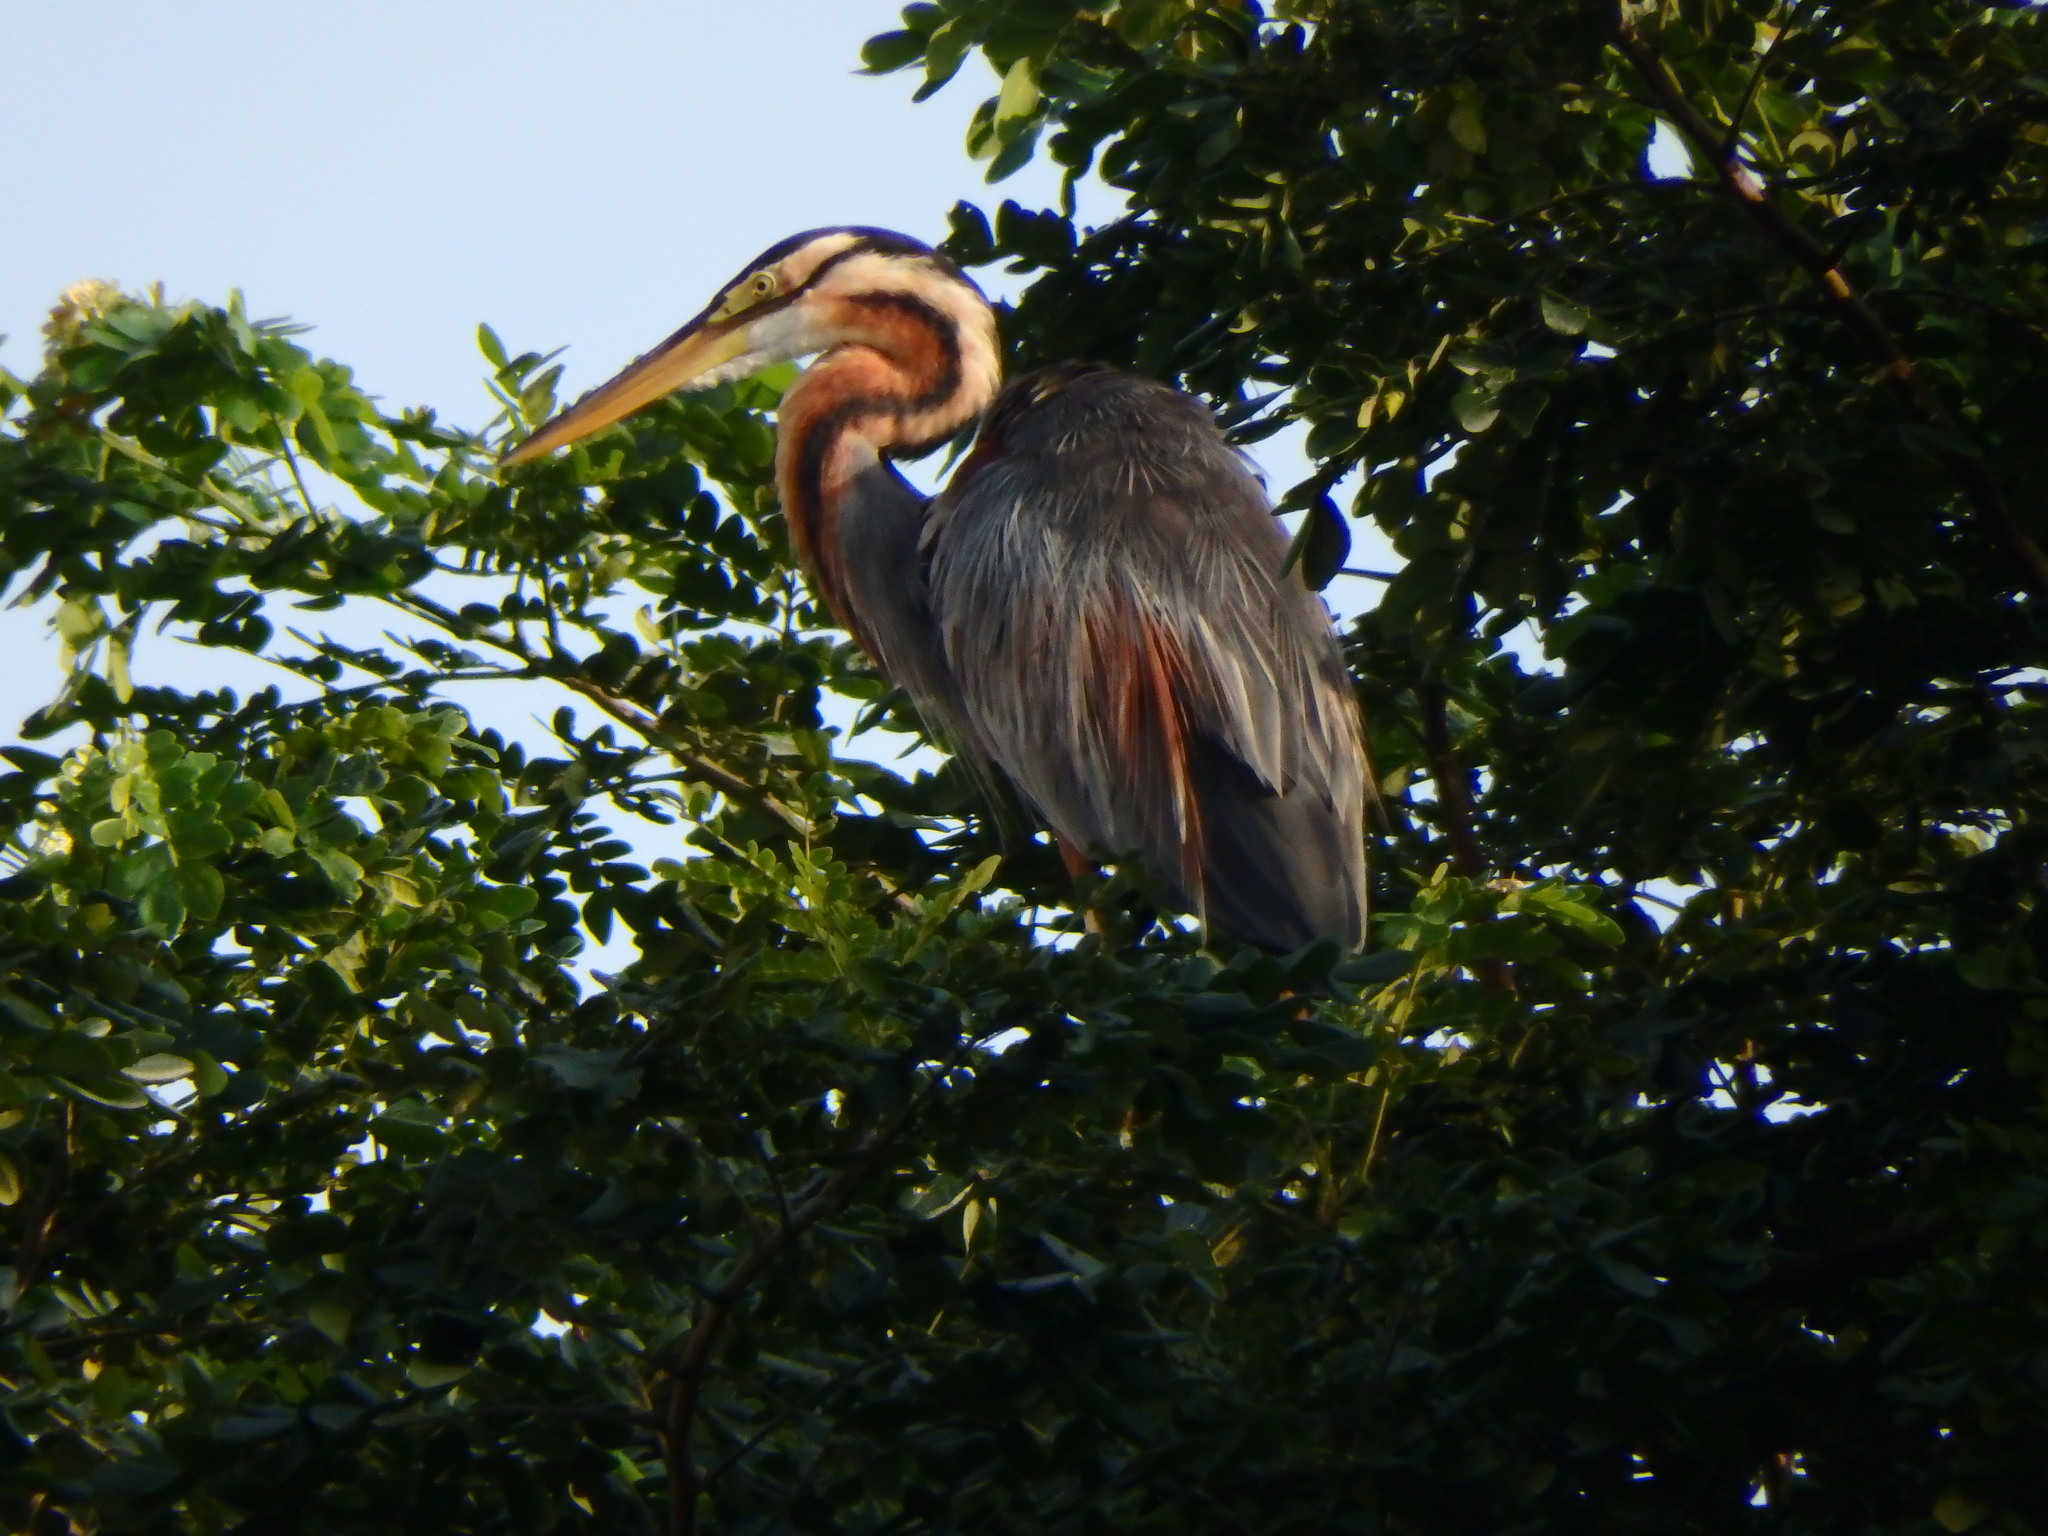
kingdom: Animalia
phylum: Chordata
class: Aves
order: Pelecaniformes
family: Ardeidae
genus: Ardea
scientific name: Ardea purpurea
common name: Purple heron
